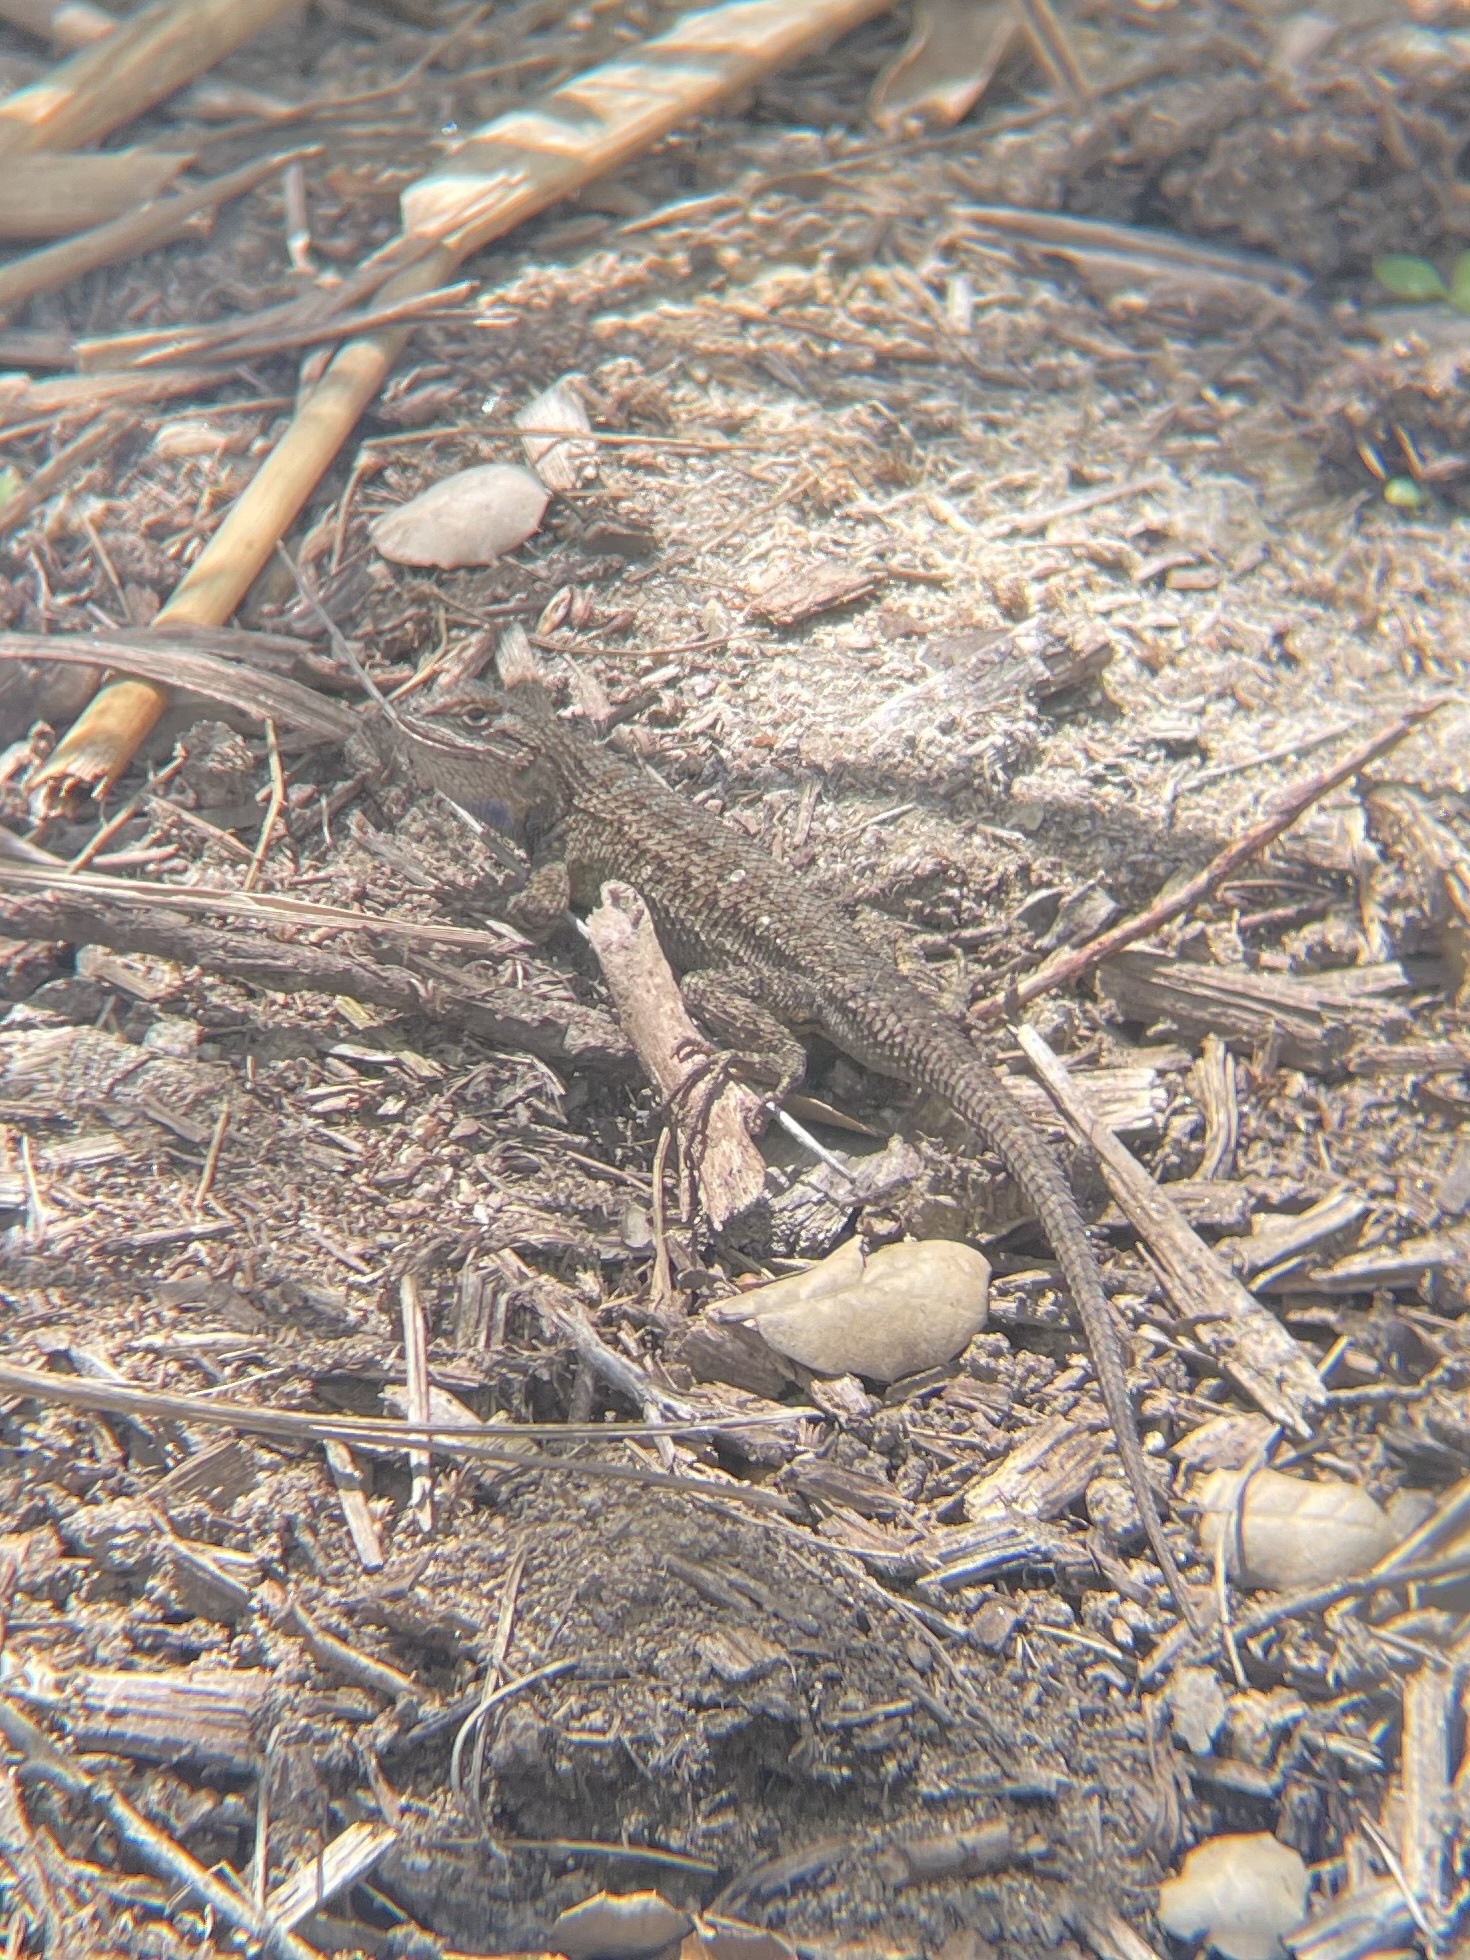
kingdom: Animalia
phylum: Chordata
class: Squamata
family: Phrynosomatidae
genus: Sceloporus
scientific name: Sceloporus occidentalis
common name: Western fence lizard
